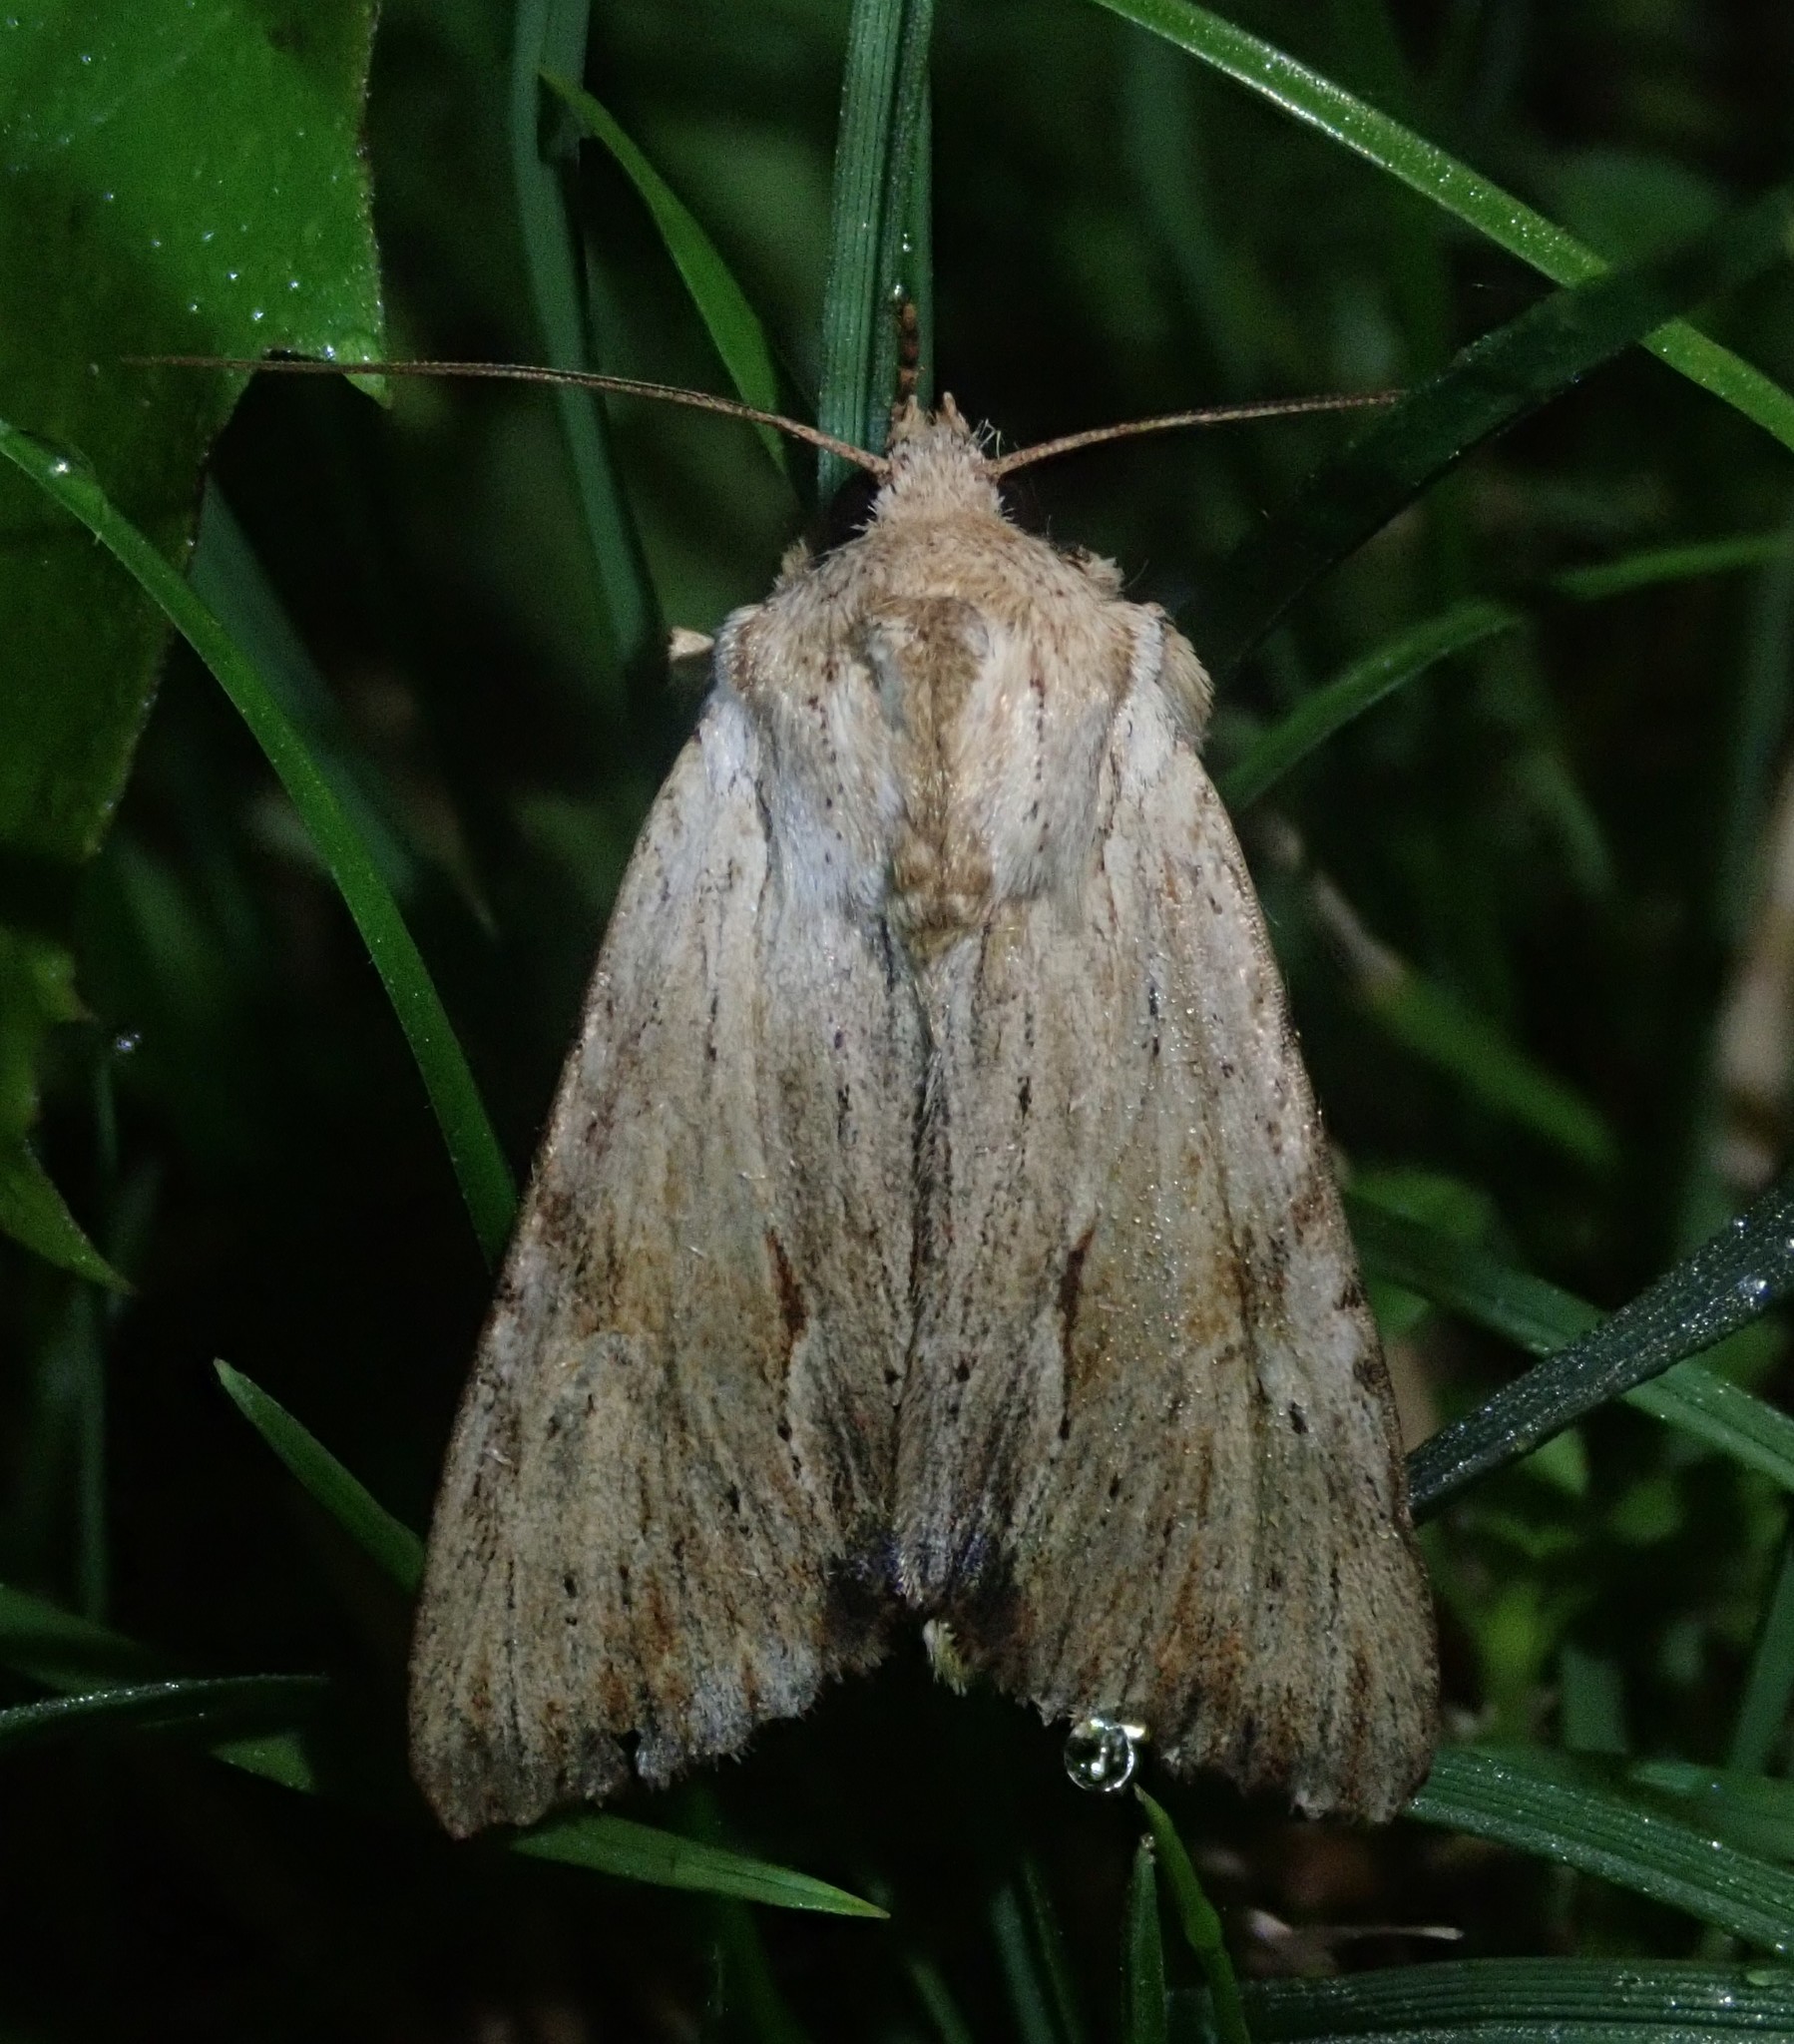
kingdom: Animalia
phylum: Arthropoda
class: Insecta
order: Lepidoptera
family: Noctuidae
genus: Apamea
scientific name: Apamea lithoxylaea
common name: Light arches
